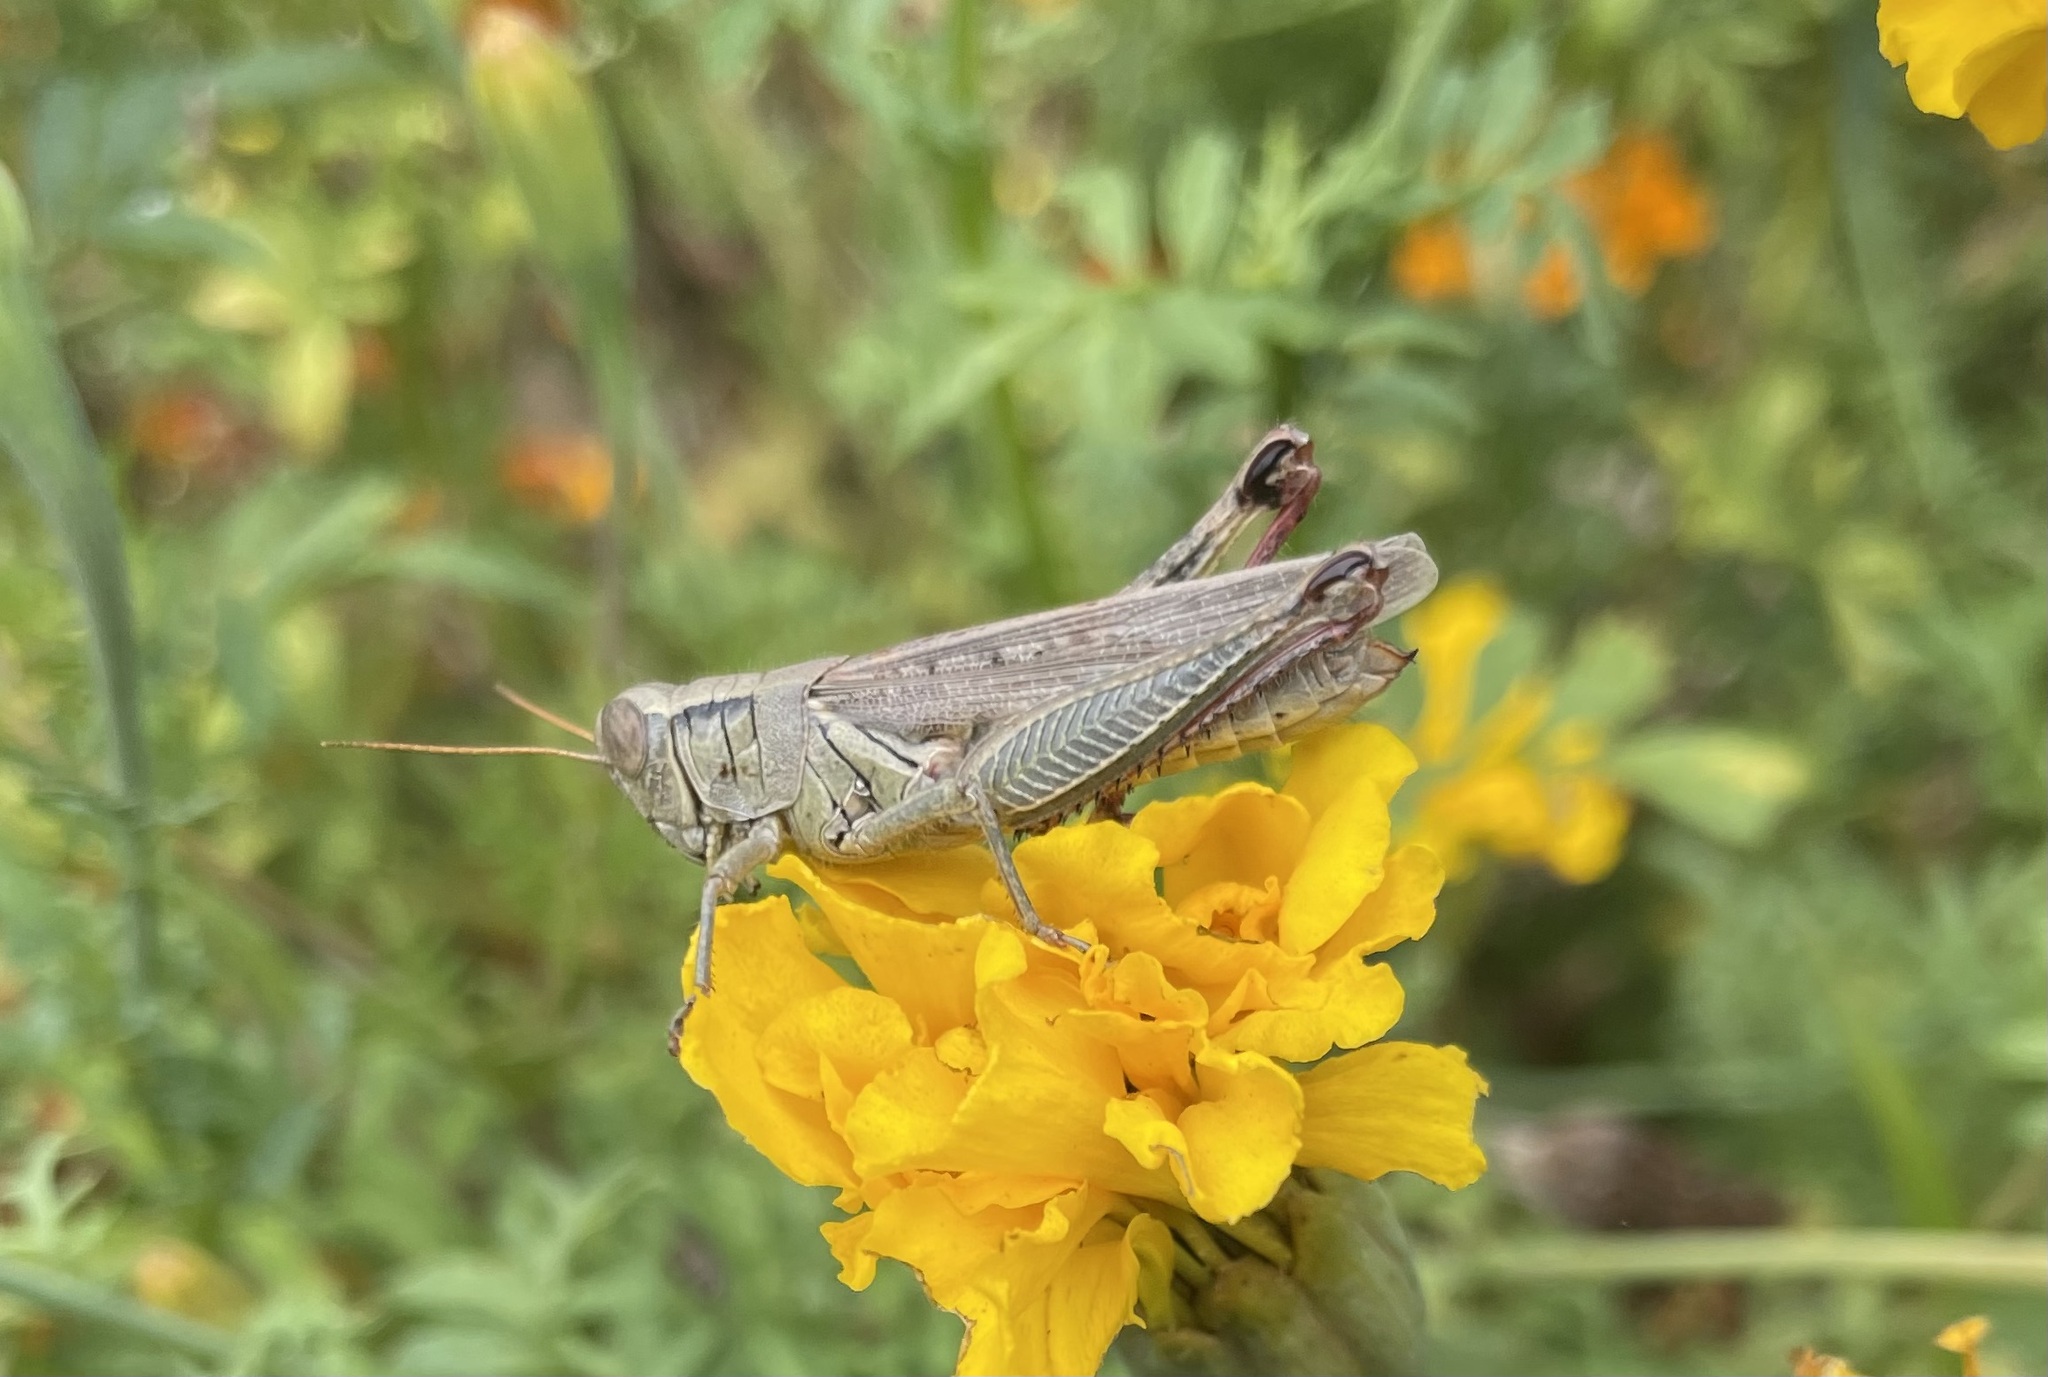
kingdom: Animalia
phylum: Arthropoda
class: Insecta
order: Orthoptera
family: Acrididae
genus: Melanoplus
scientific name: Melanoplus yarrowii
